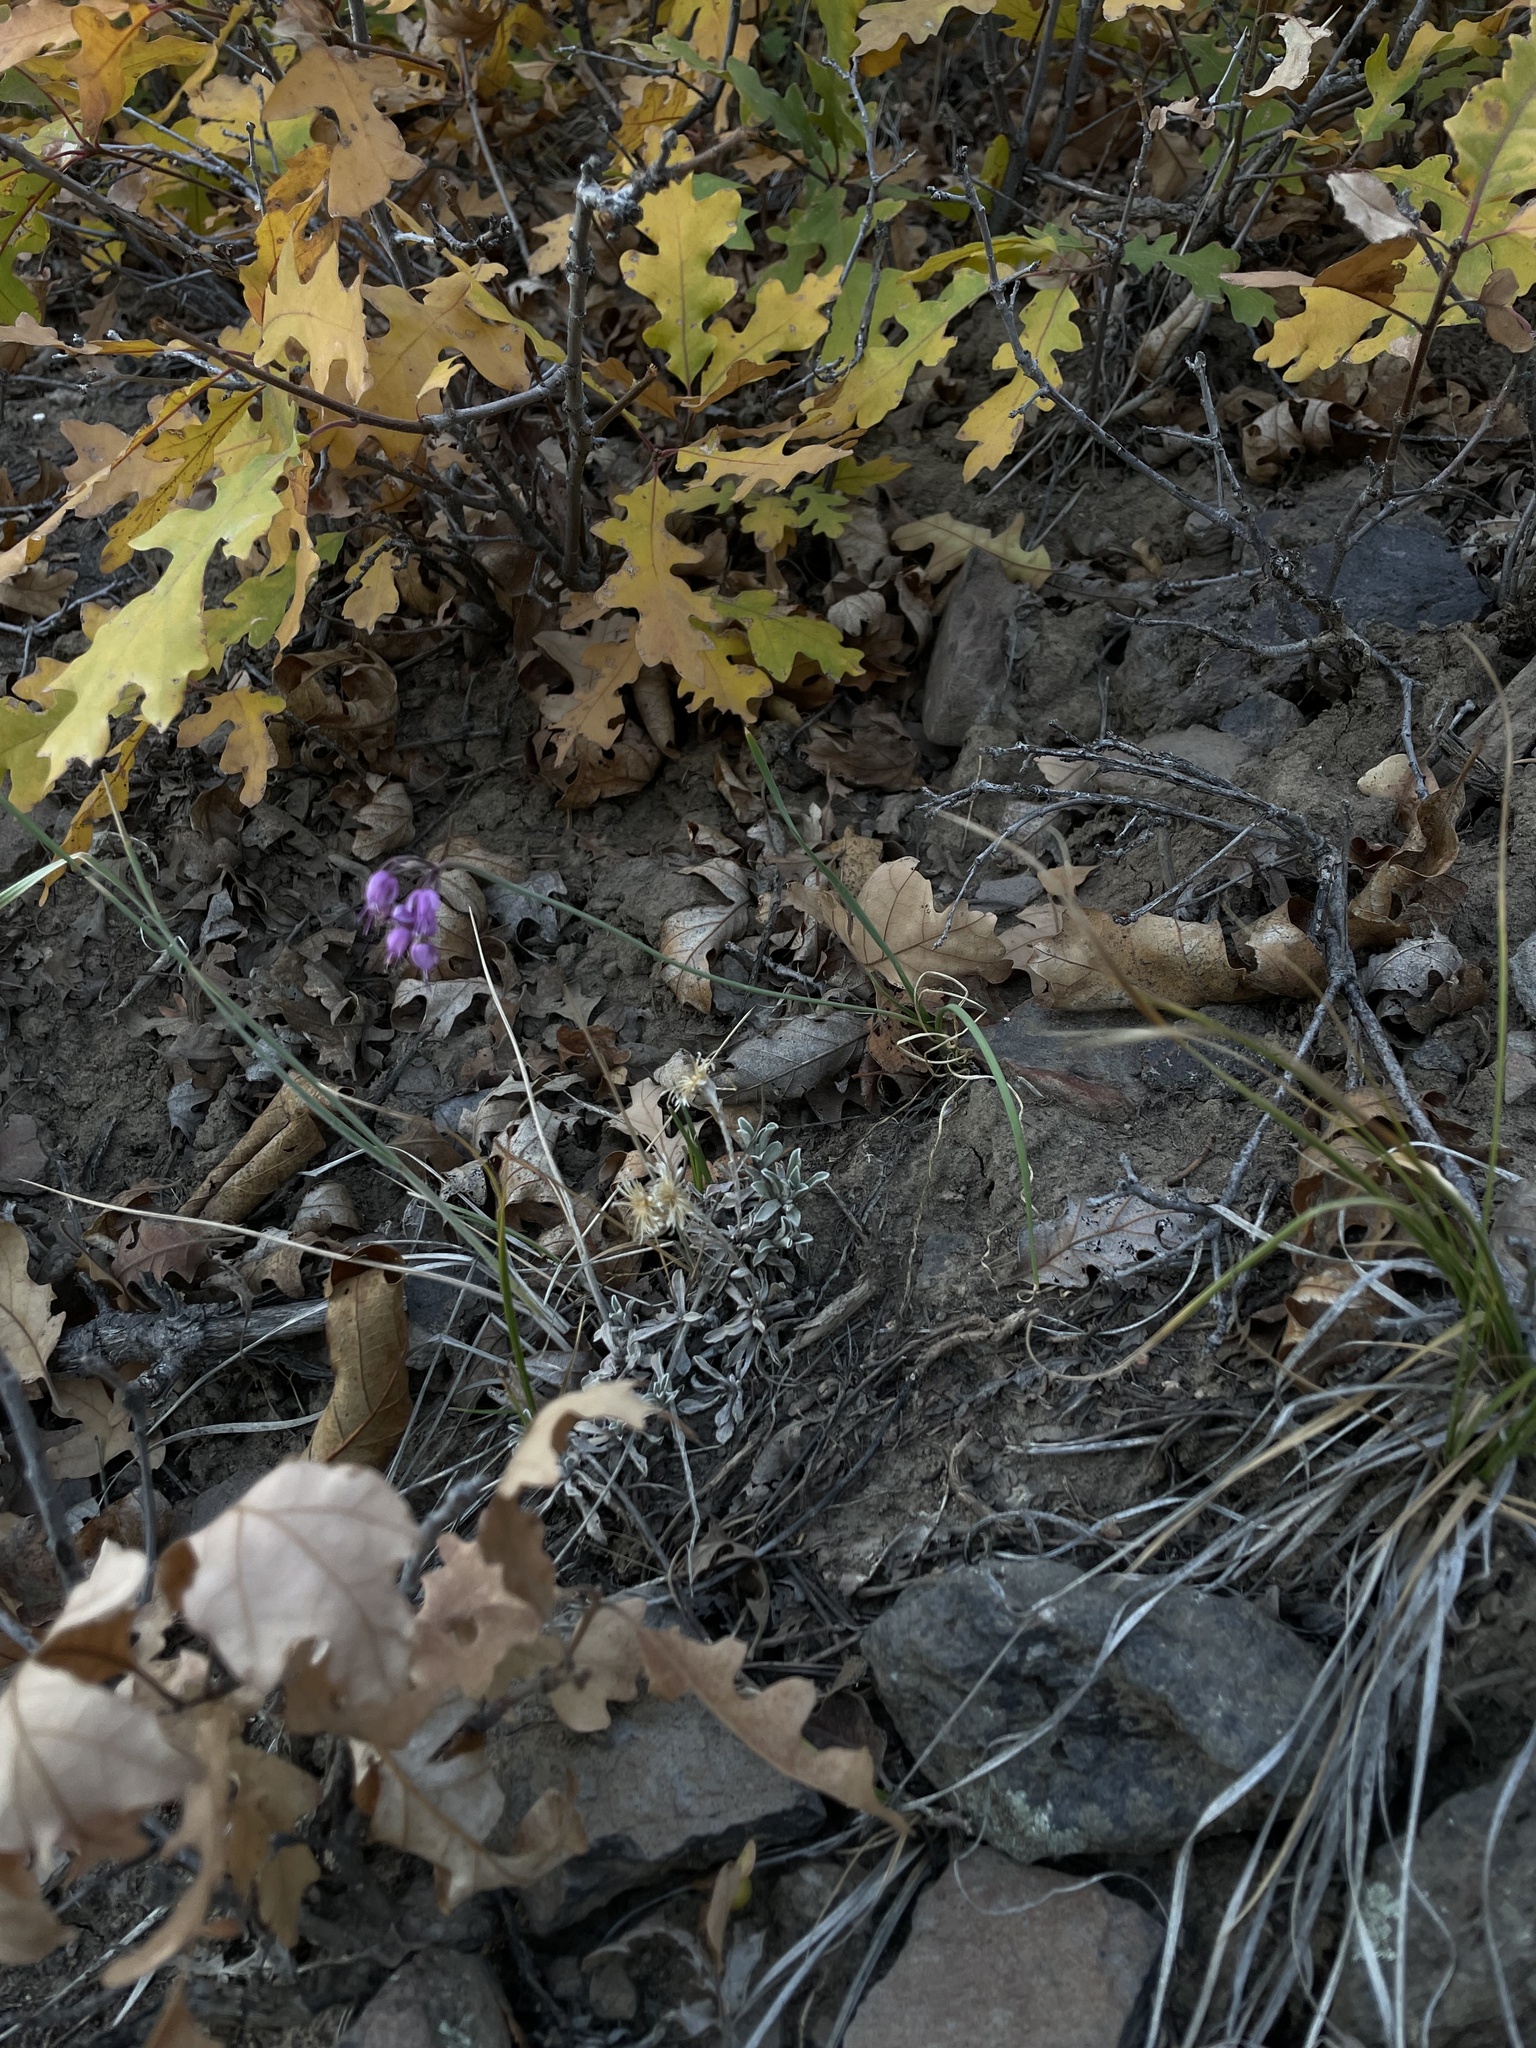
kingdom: Plantae
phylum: Tracheophyta
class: Liliopsida
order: Asparagales
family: Amaryllidaceae
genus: Allium
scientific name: Allium cernuum
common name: Nodding onion
